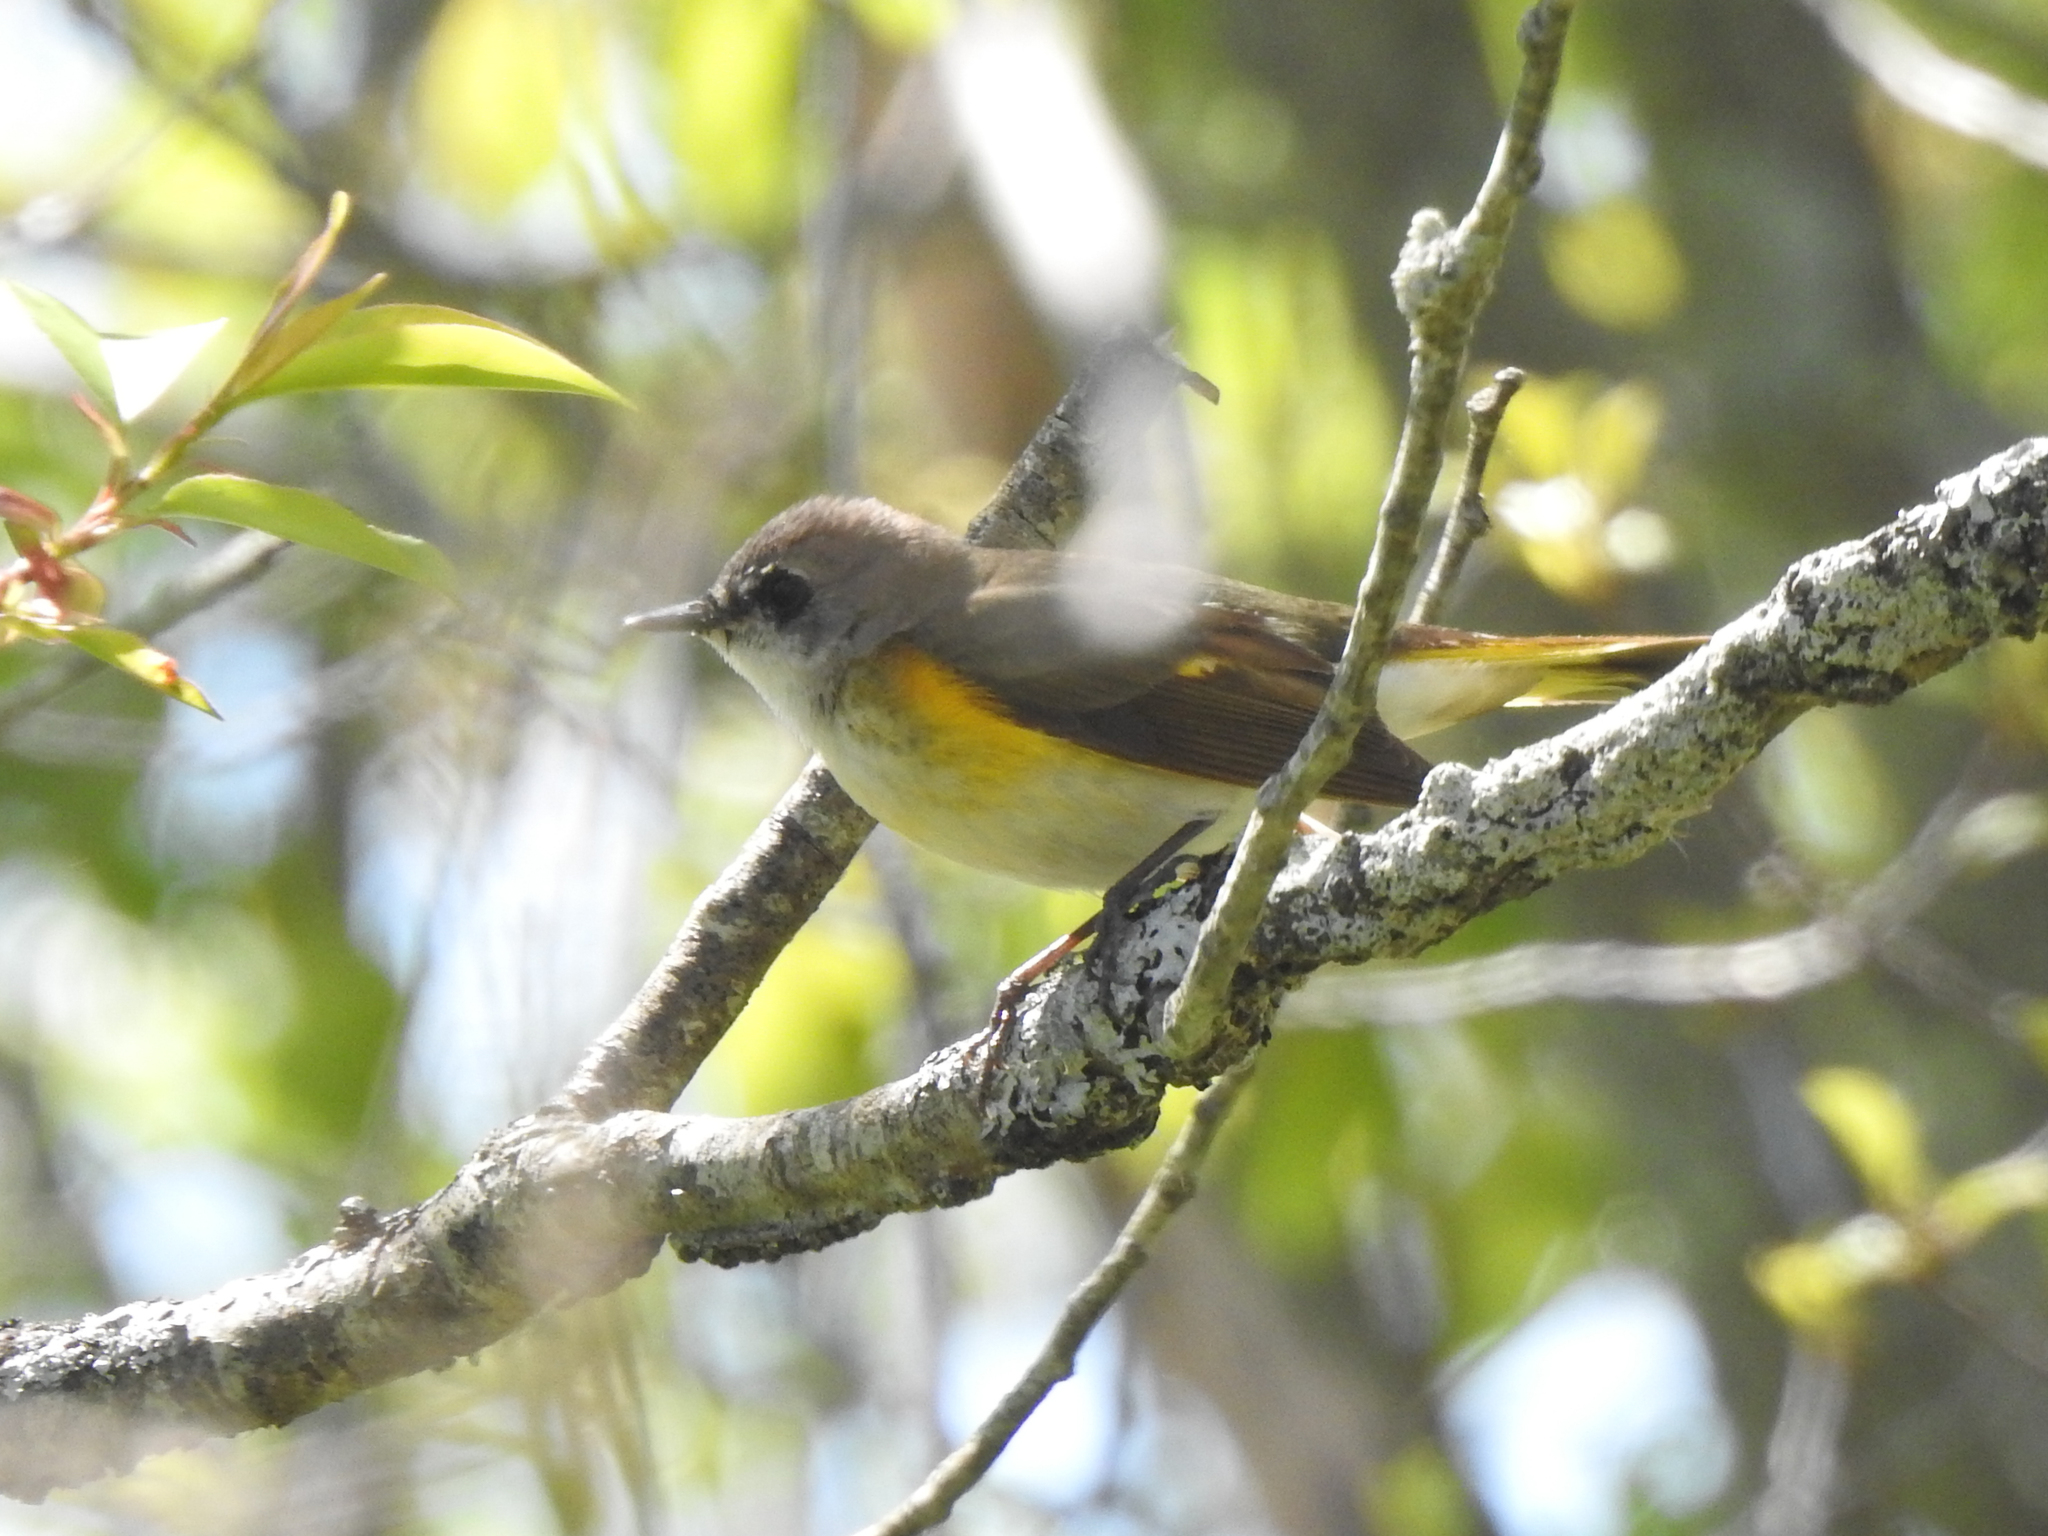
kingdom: Animalia
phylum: Chordata
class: Aves
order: Passeriformes
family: Parulidae
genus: Setophaga
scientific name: Setophaga ruticilla
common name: American redstart
